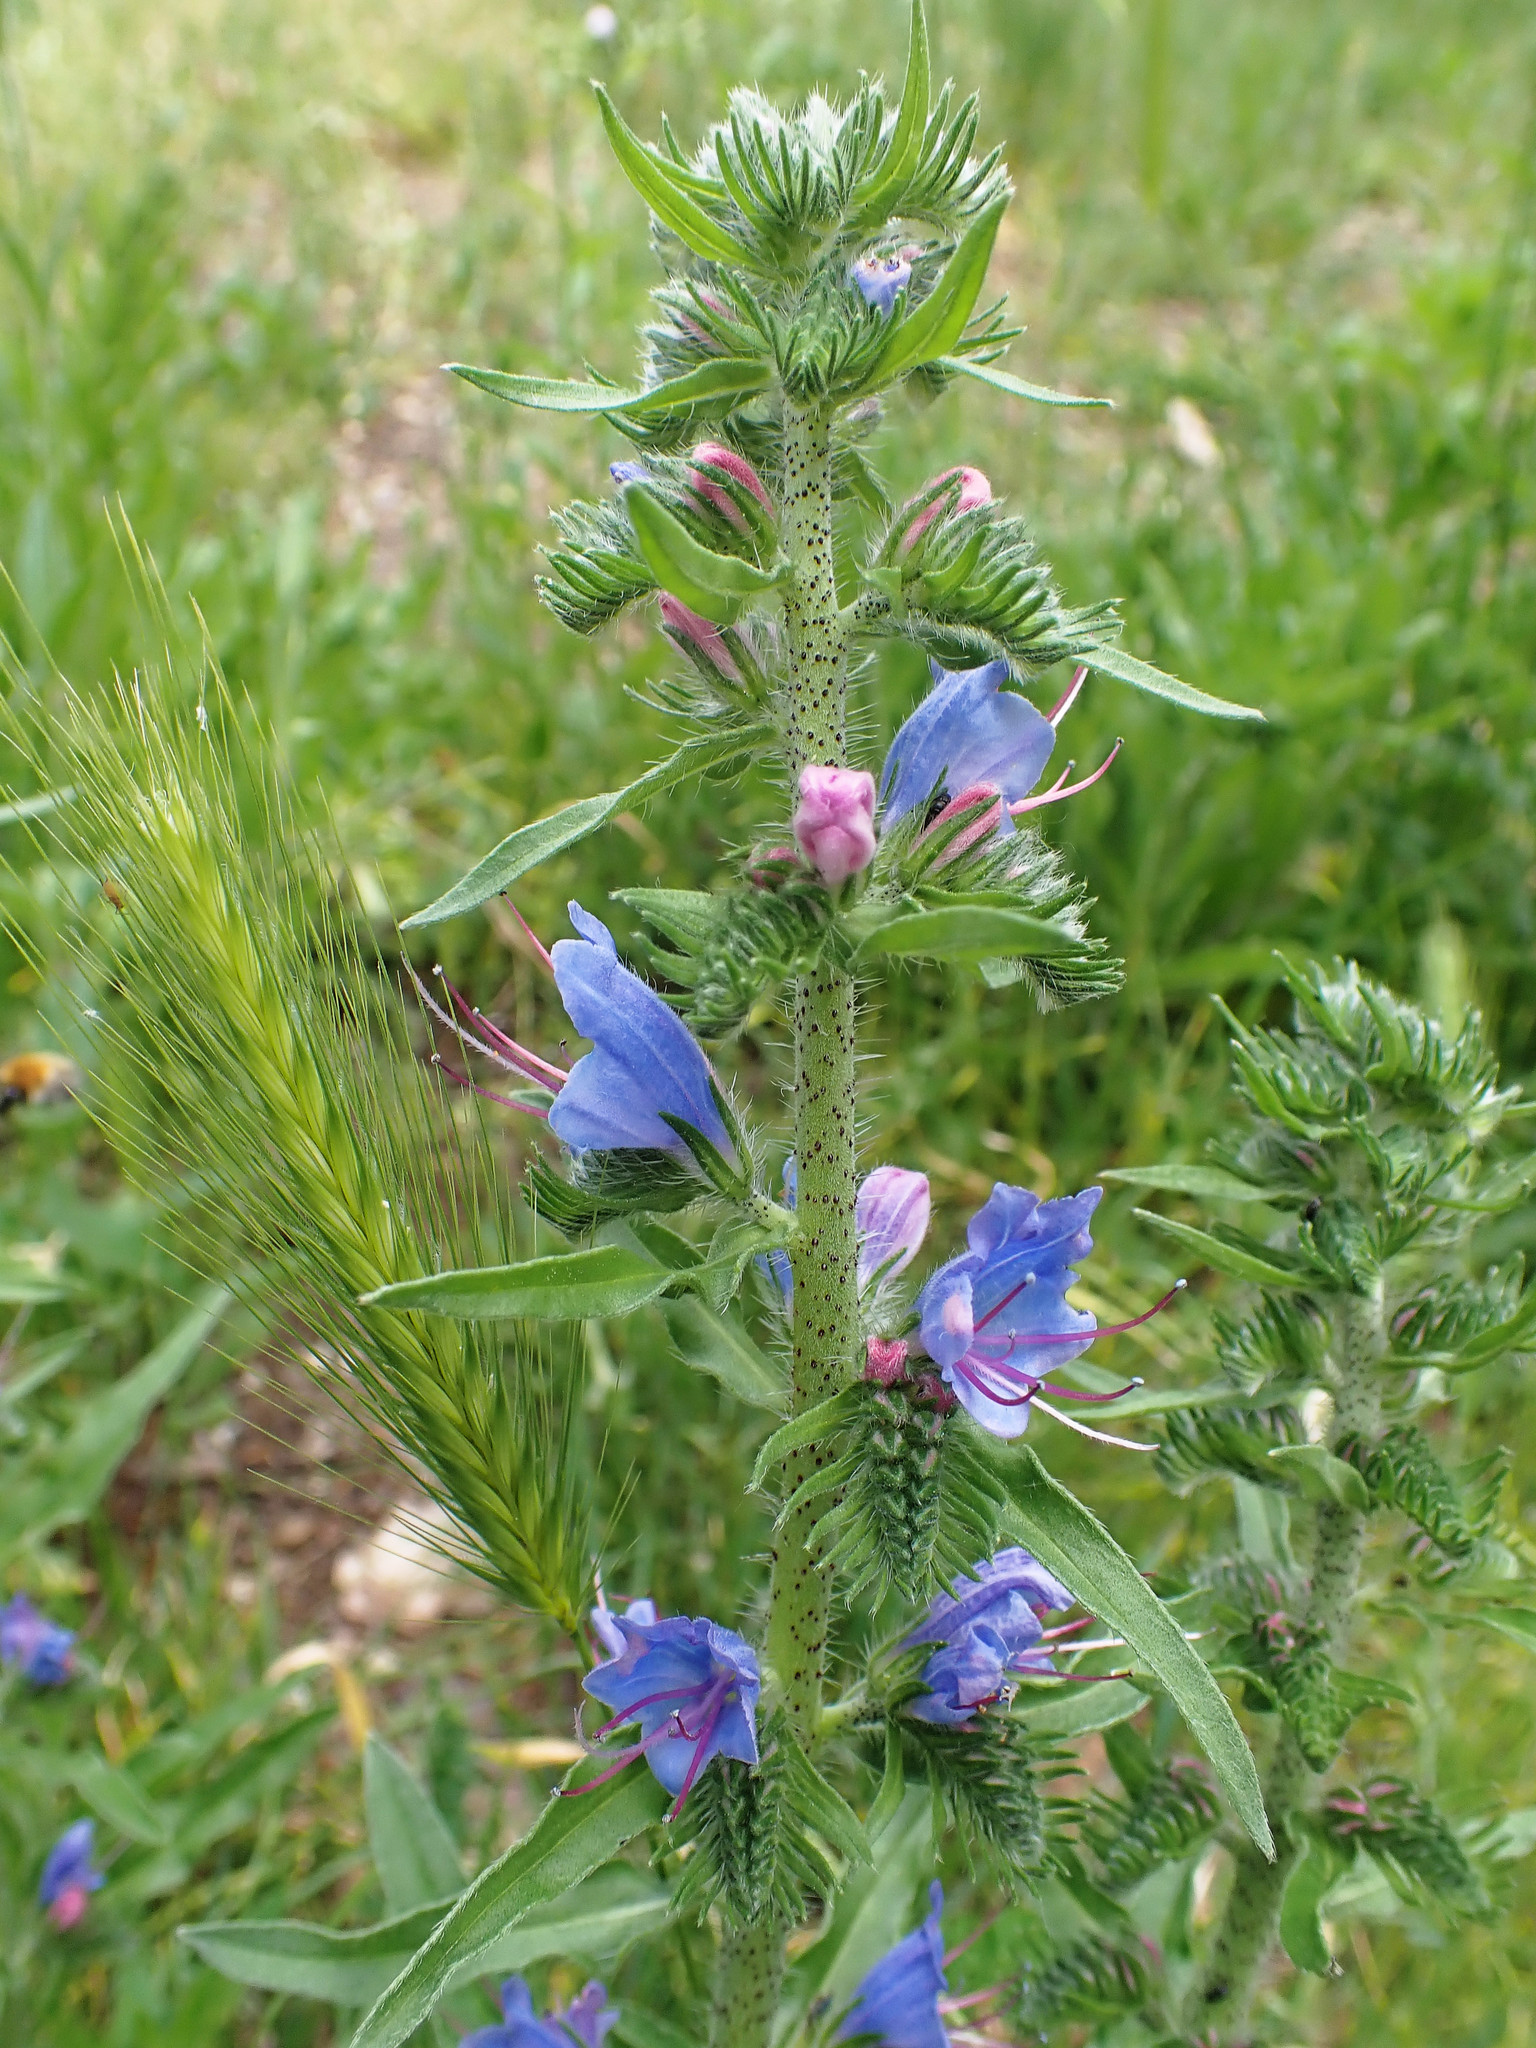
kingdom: Plantae
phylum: Tracheophyta
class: Magnoliopsida
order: Boraginales
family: Boraginaceae
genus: Echium
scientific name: Echium vulgare
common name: Common viper's bugloss
